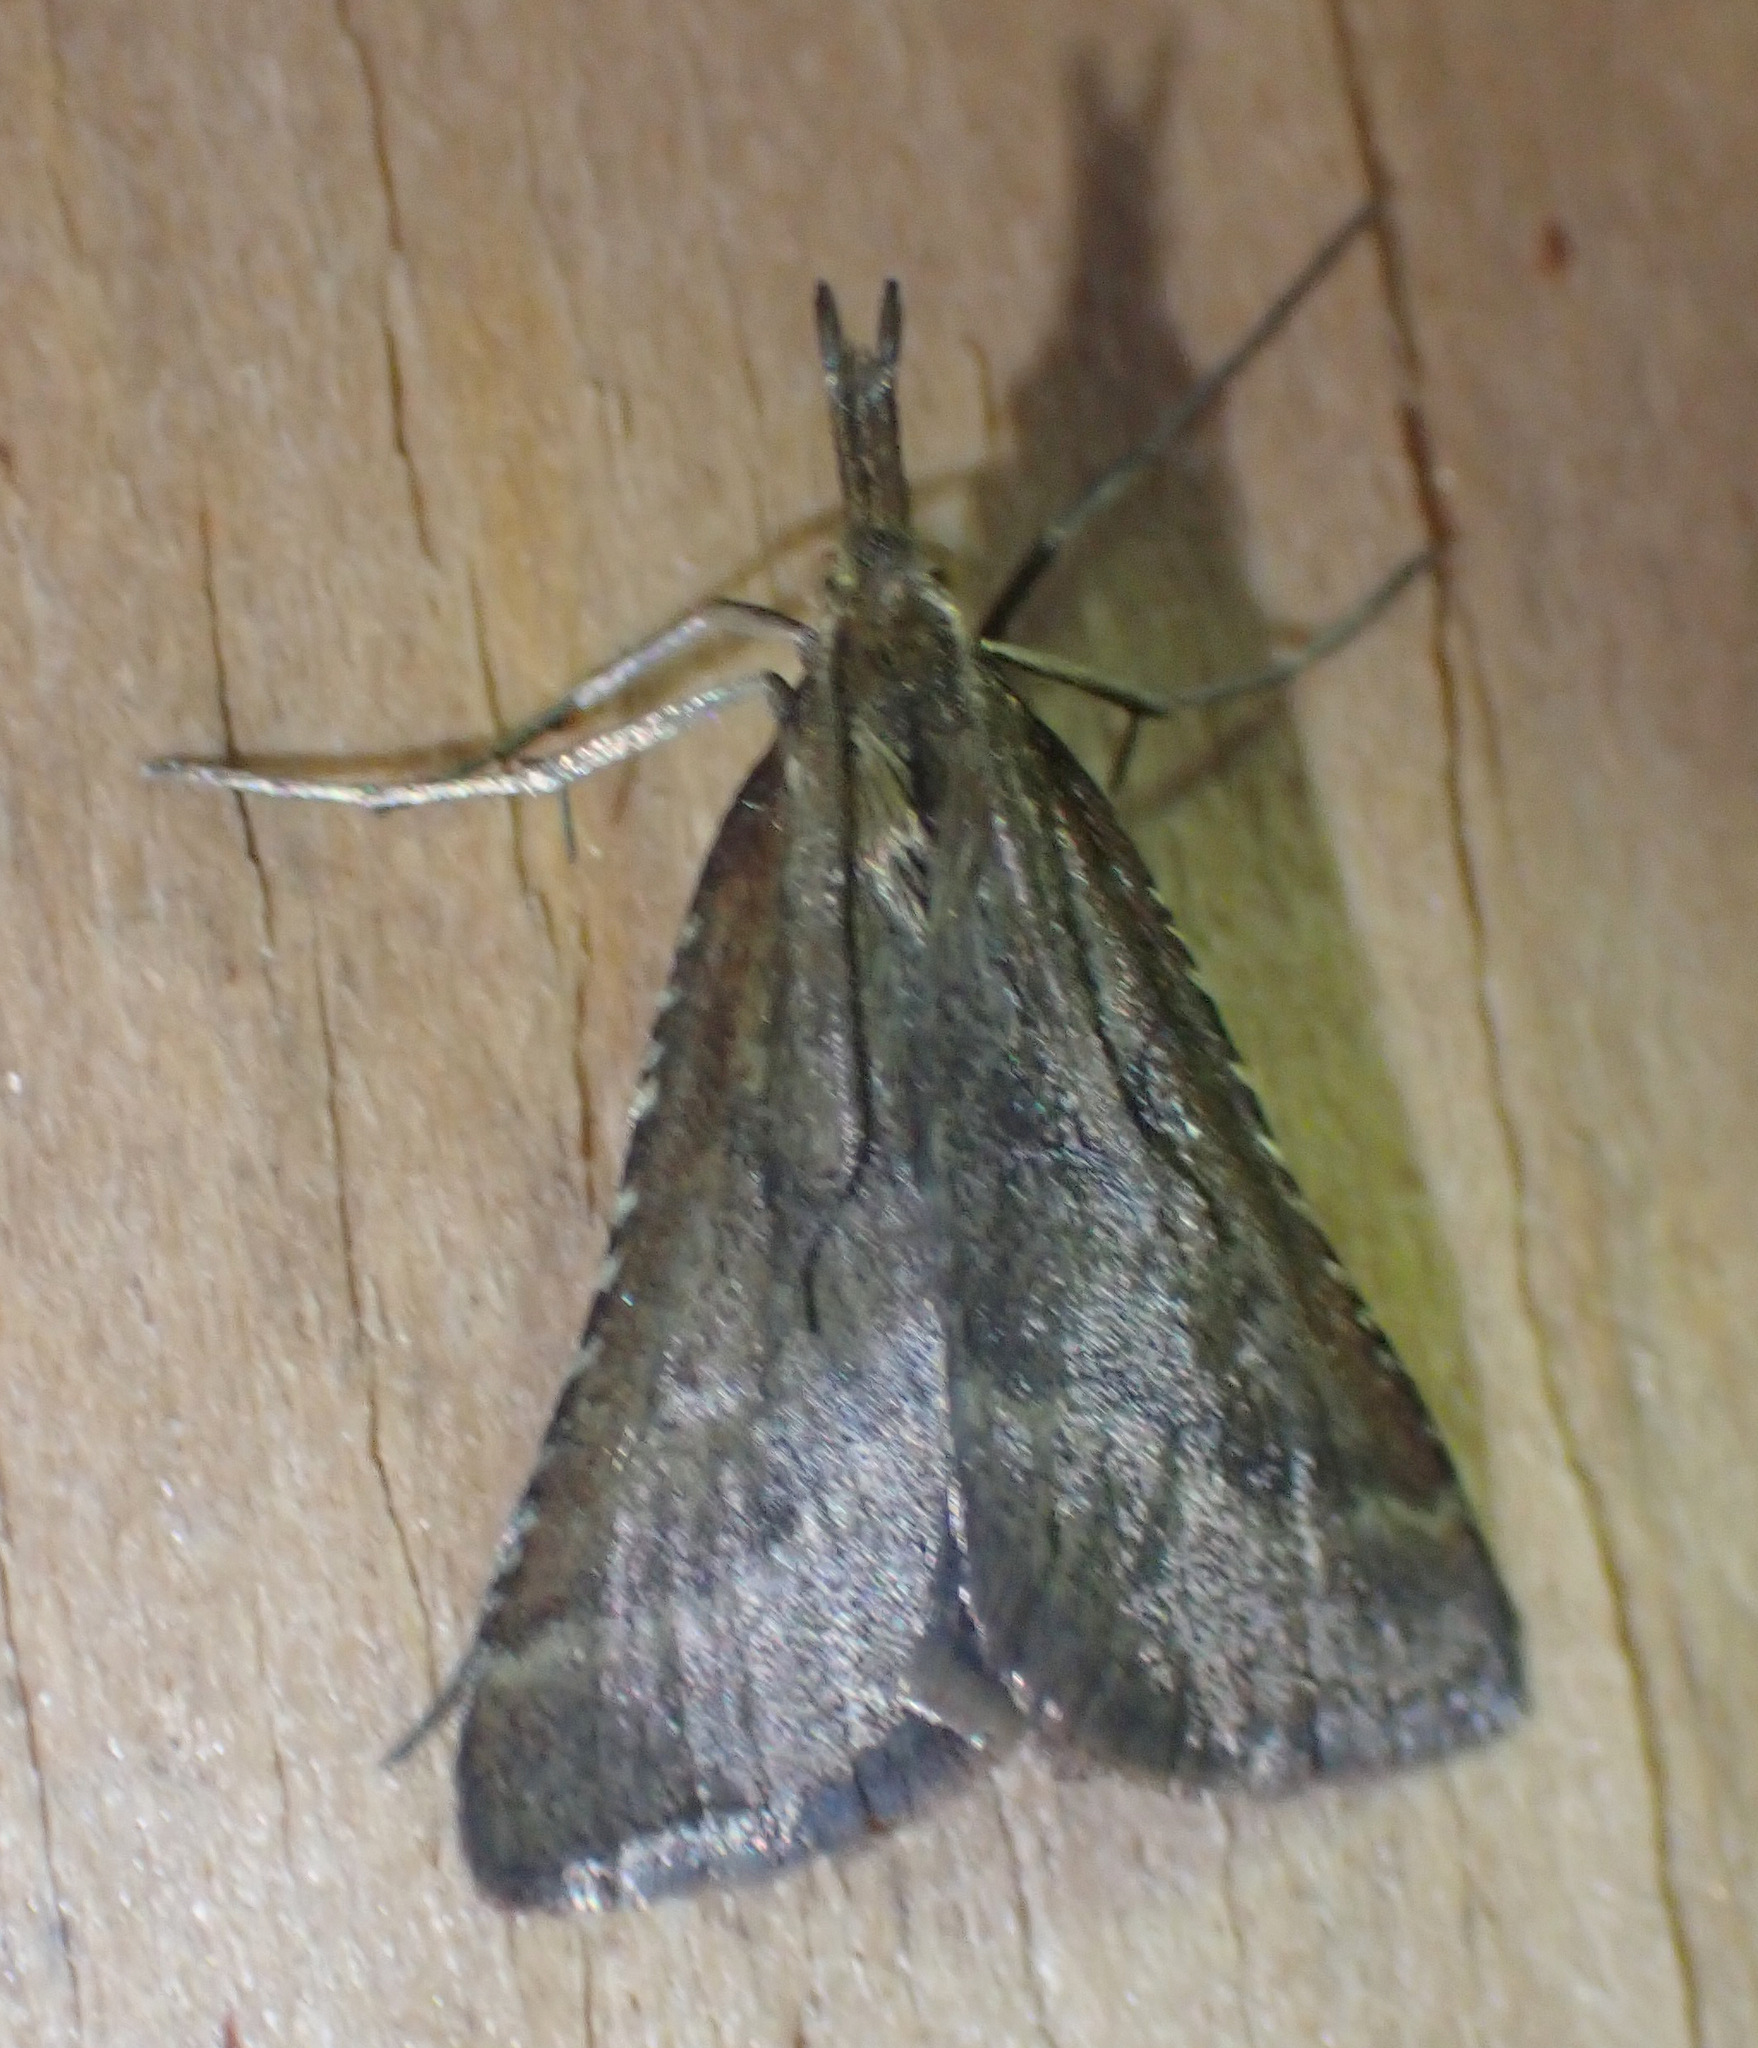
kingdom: Animalia
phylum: Arthropoda
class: Insecta
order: Lepidoptera
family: Pyralidae
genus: Synaphe
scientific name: Synaphe punctalis
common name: Long-legged tabby
